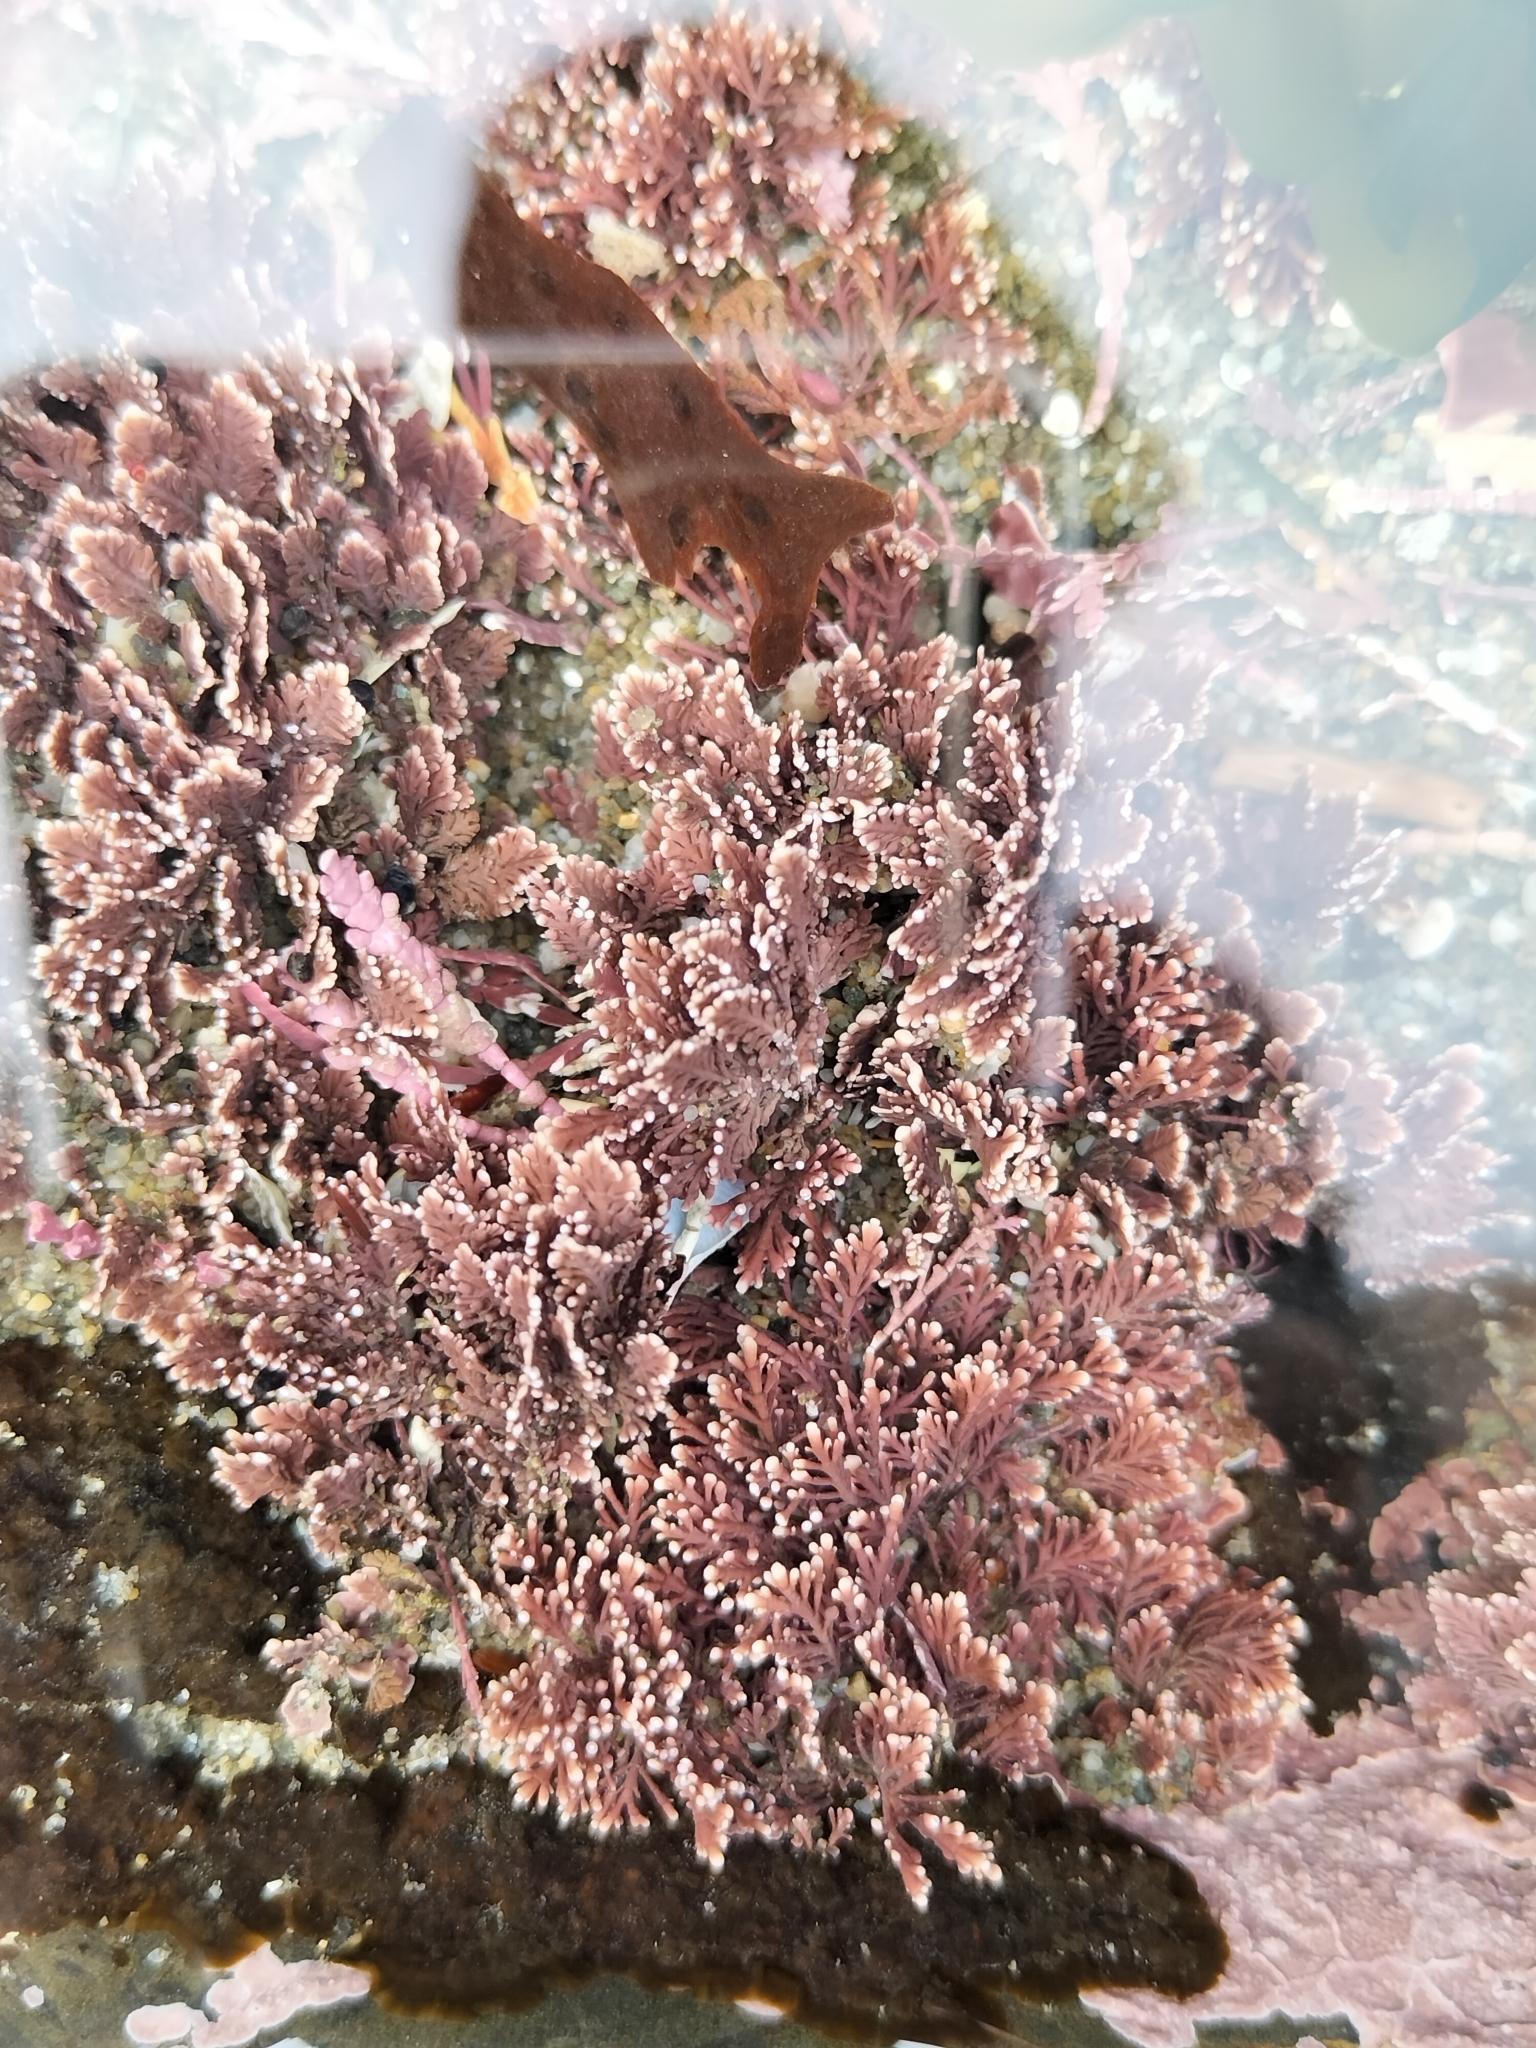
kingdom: Plantae
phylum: Rhodophyta
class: Florideophyceae
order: Corallinales
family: Corallinaceae
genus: Corallina
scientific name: Corallina officinalis
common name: Coral weed
